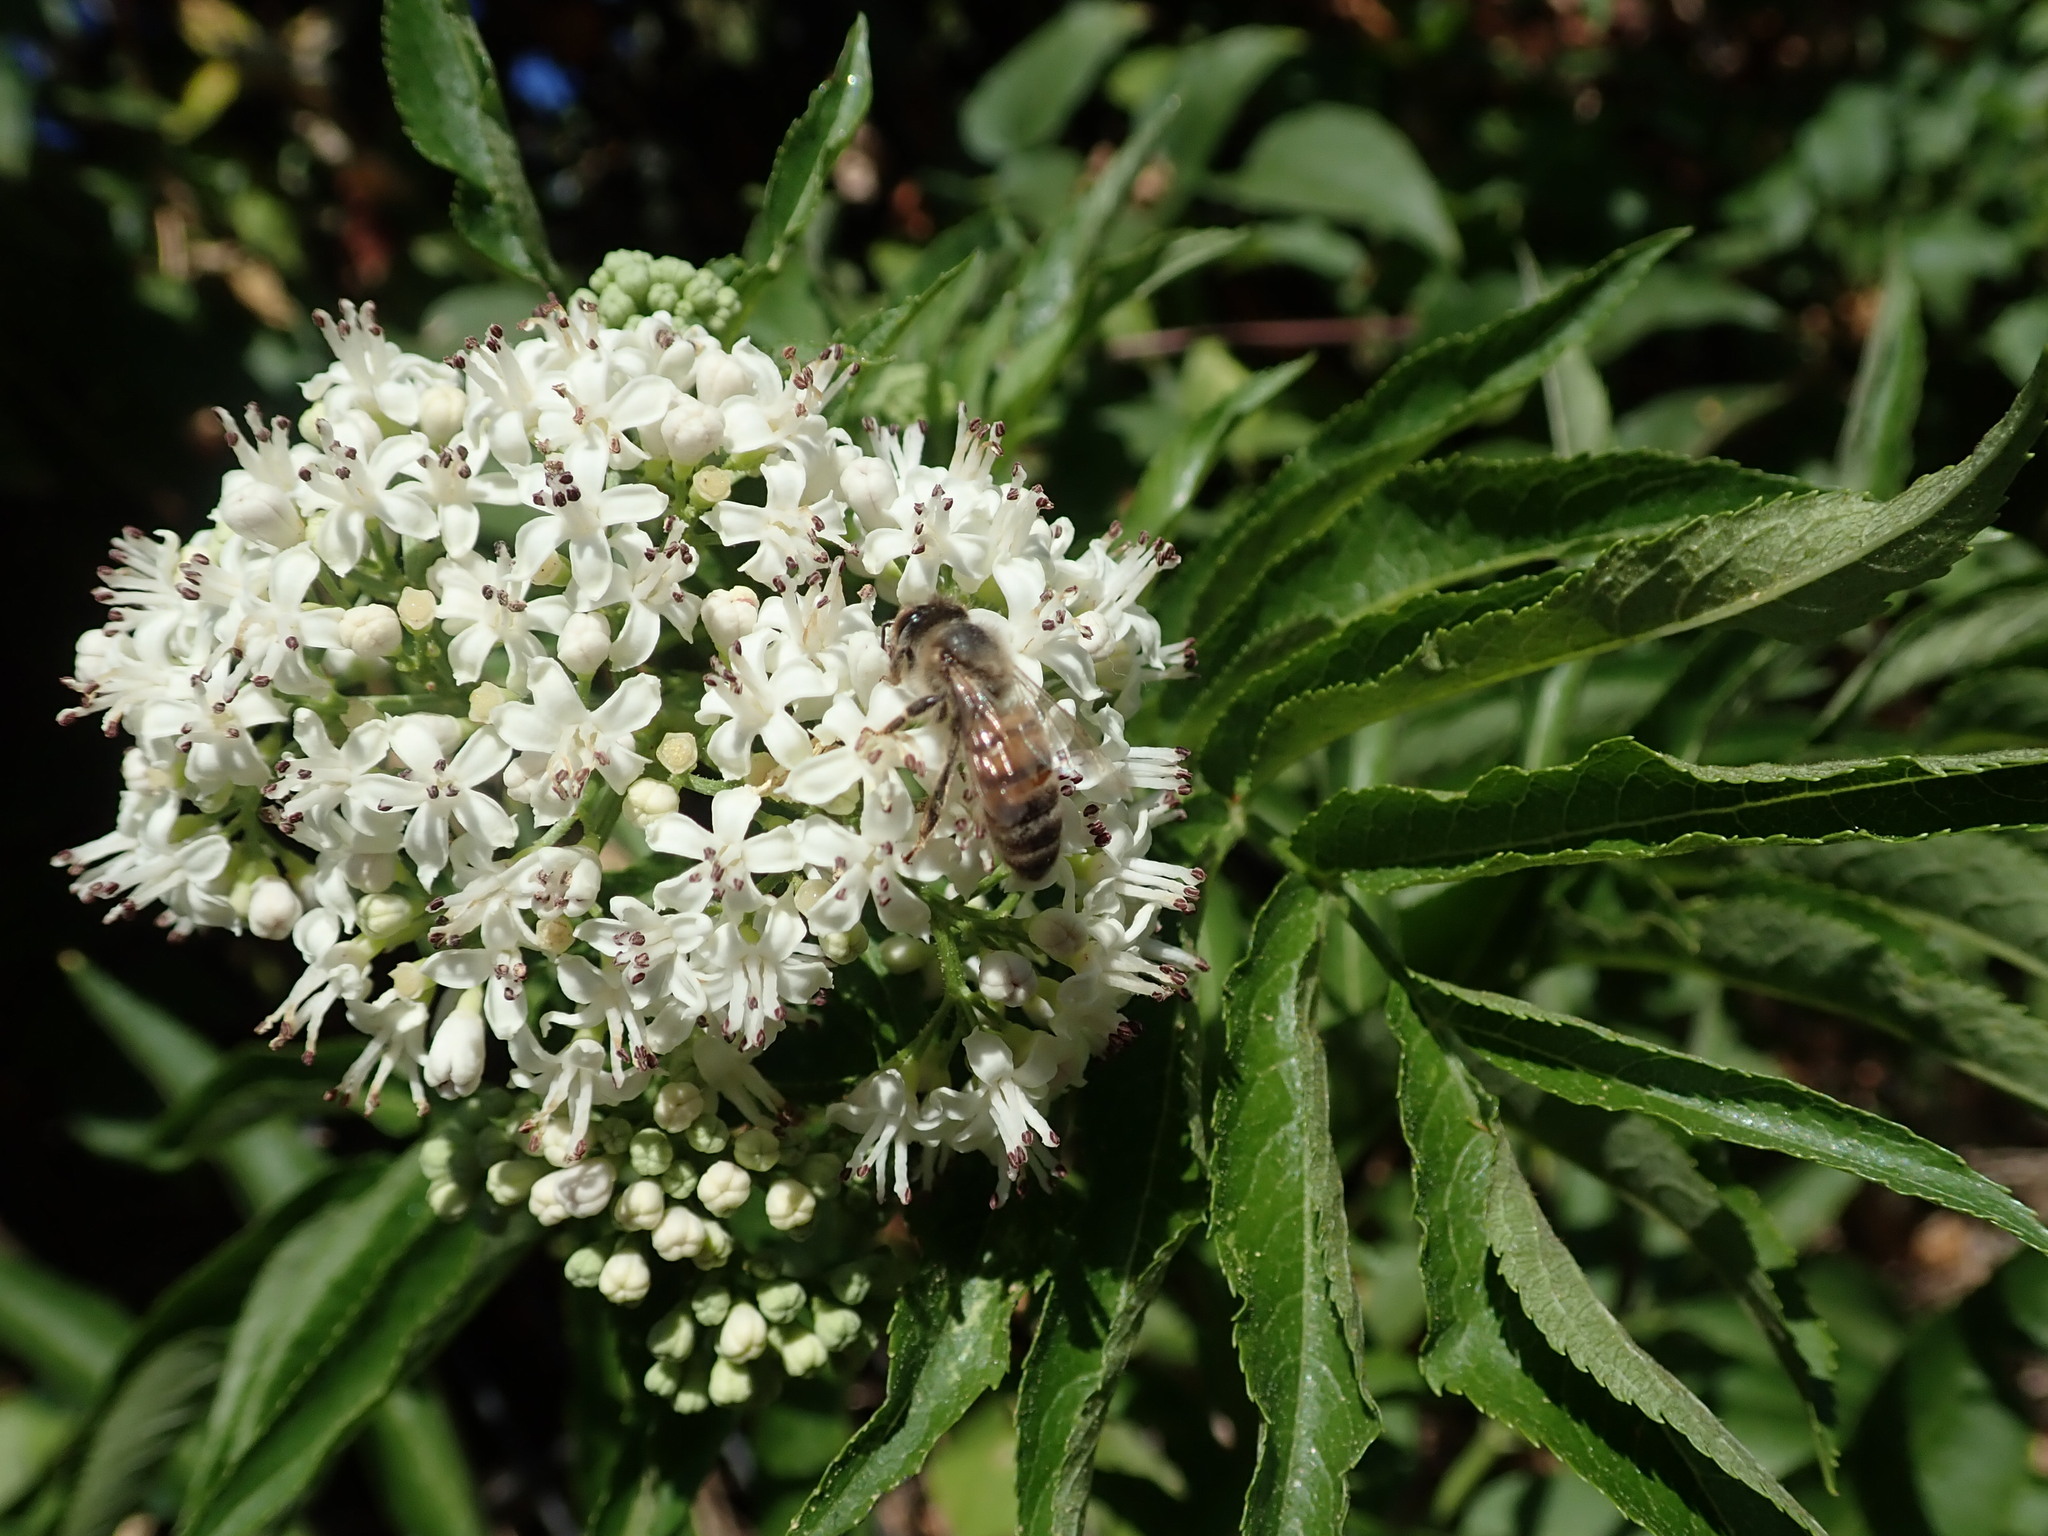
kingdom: Animalia
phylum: Arthropoda
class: Insecta
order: Hymenoptera
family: Apidae
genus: Apis
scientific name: Apis mellifera
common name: Honey bee
